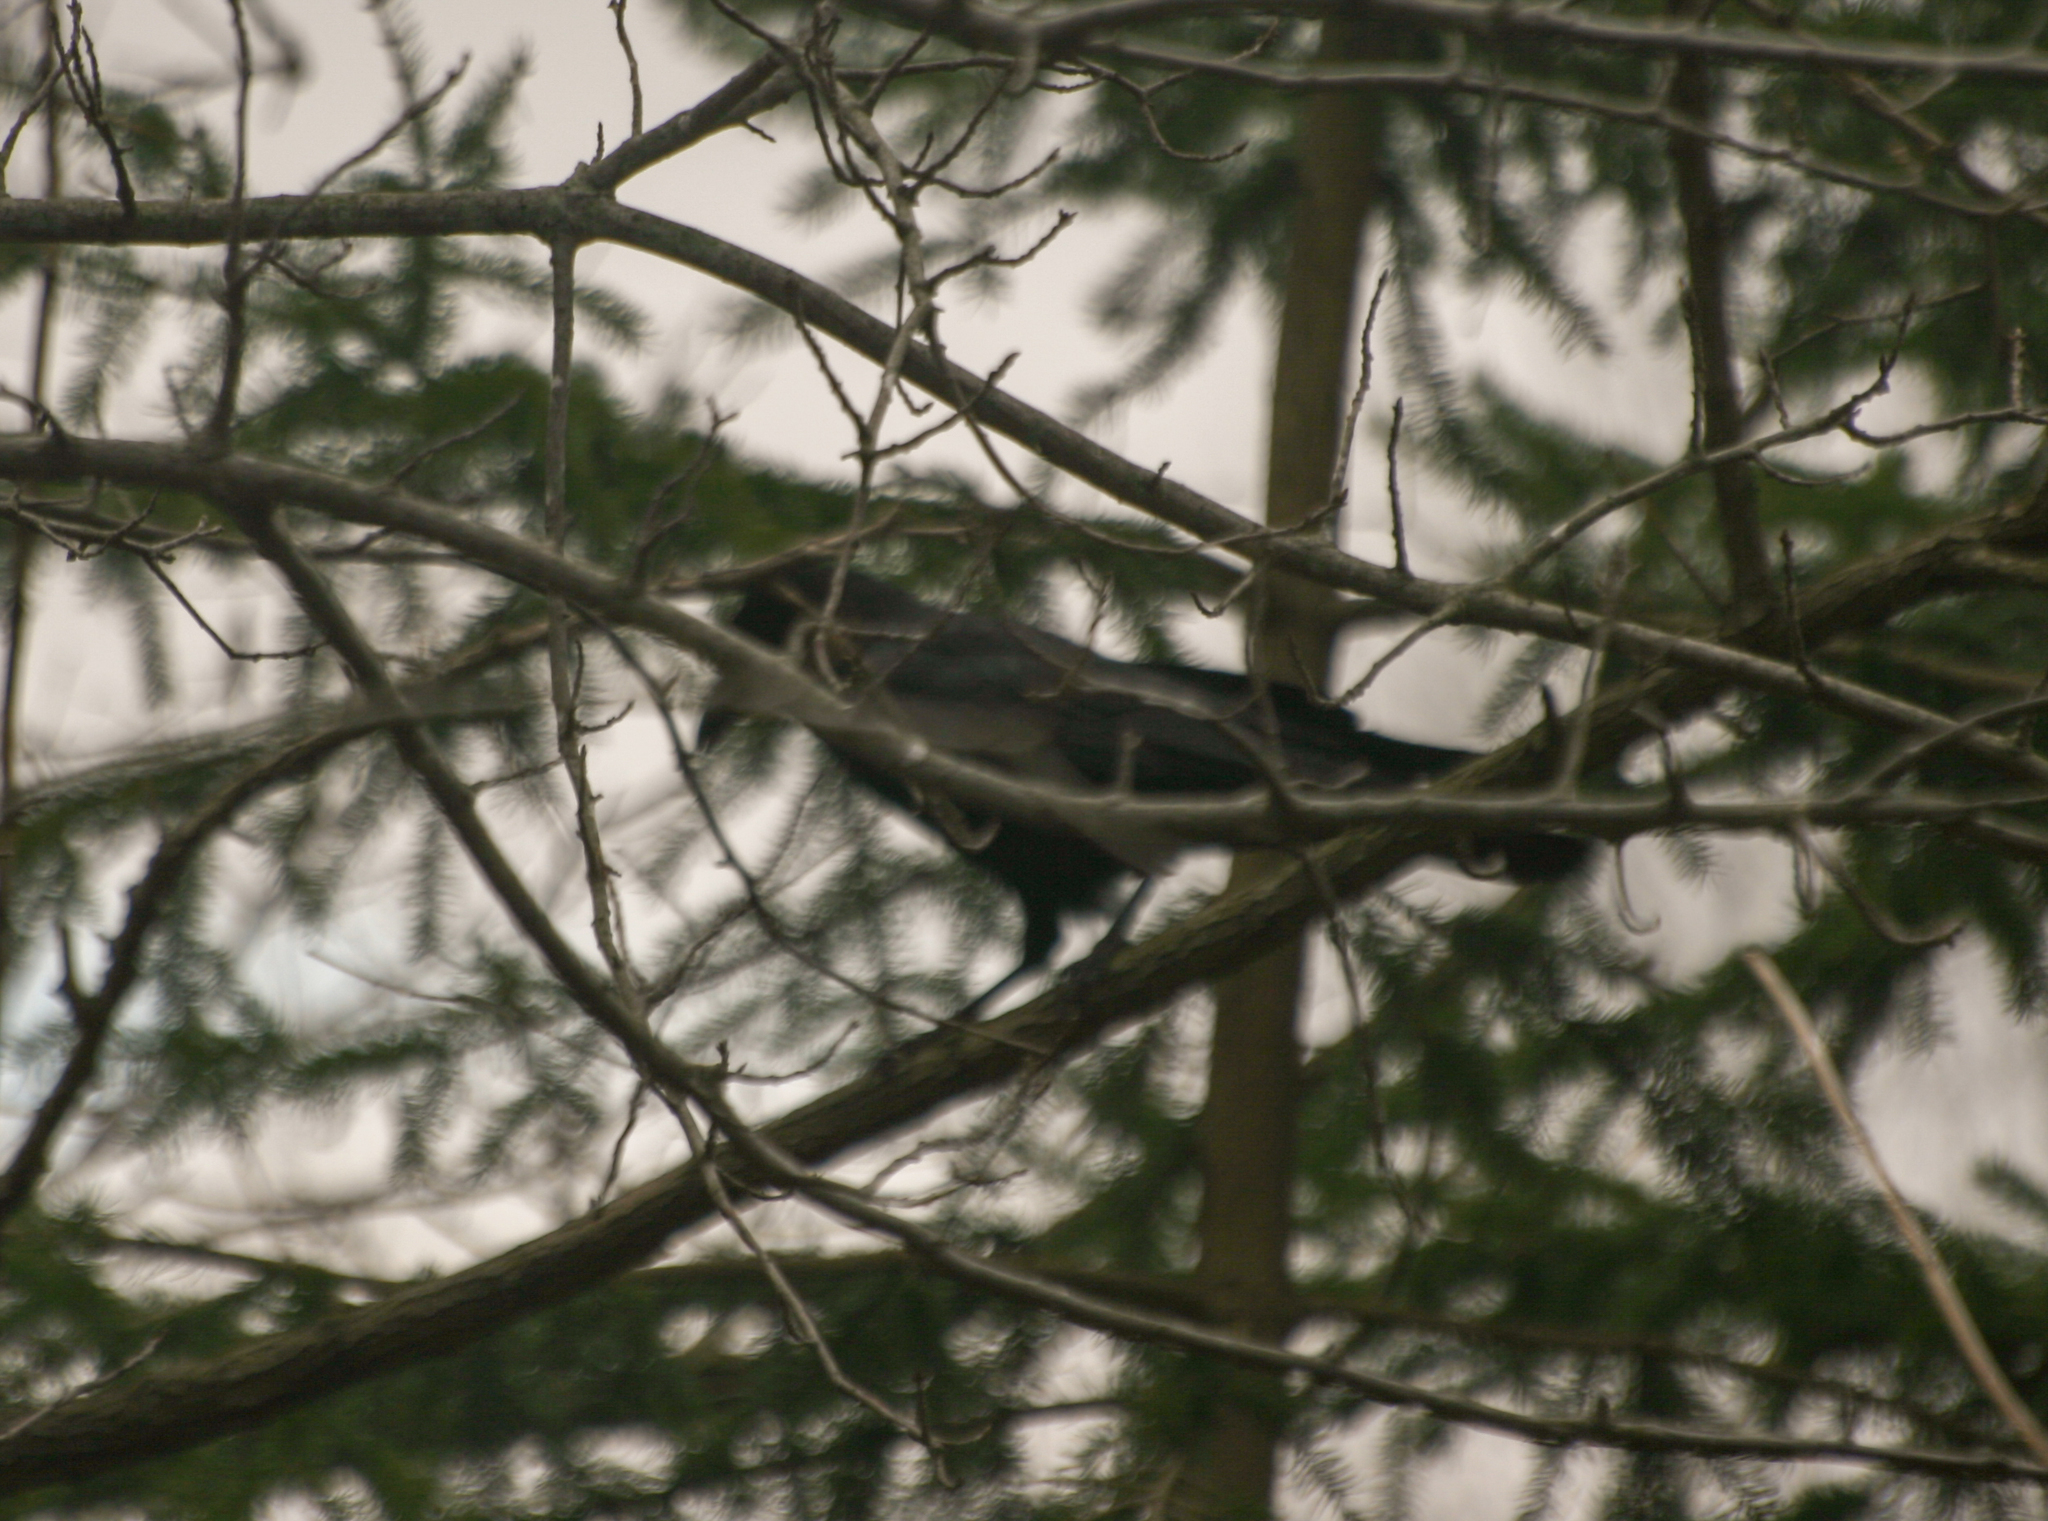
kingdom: Animalia
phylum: Chordata
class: Aves
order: Passeriformes
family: Corvidae
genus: Corvus
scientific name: Corvus brachyrhynchos
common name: American crow
